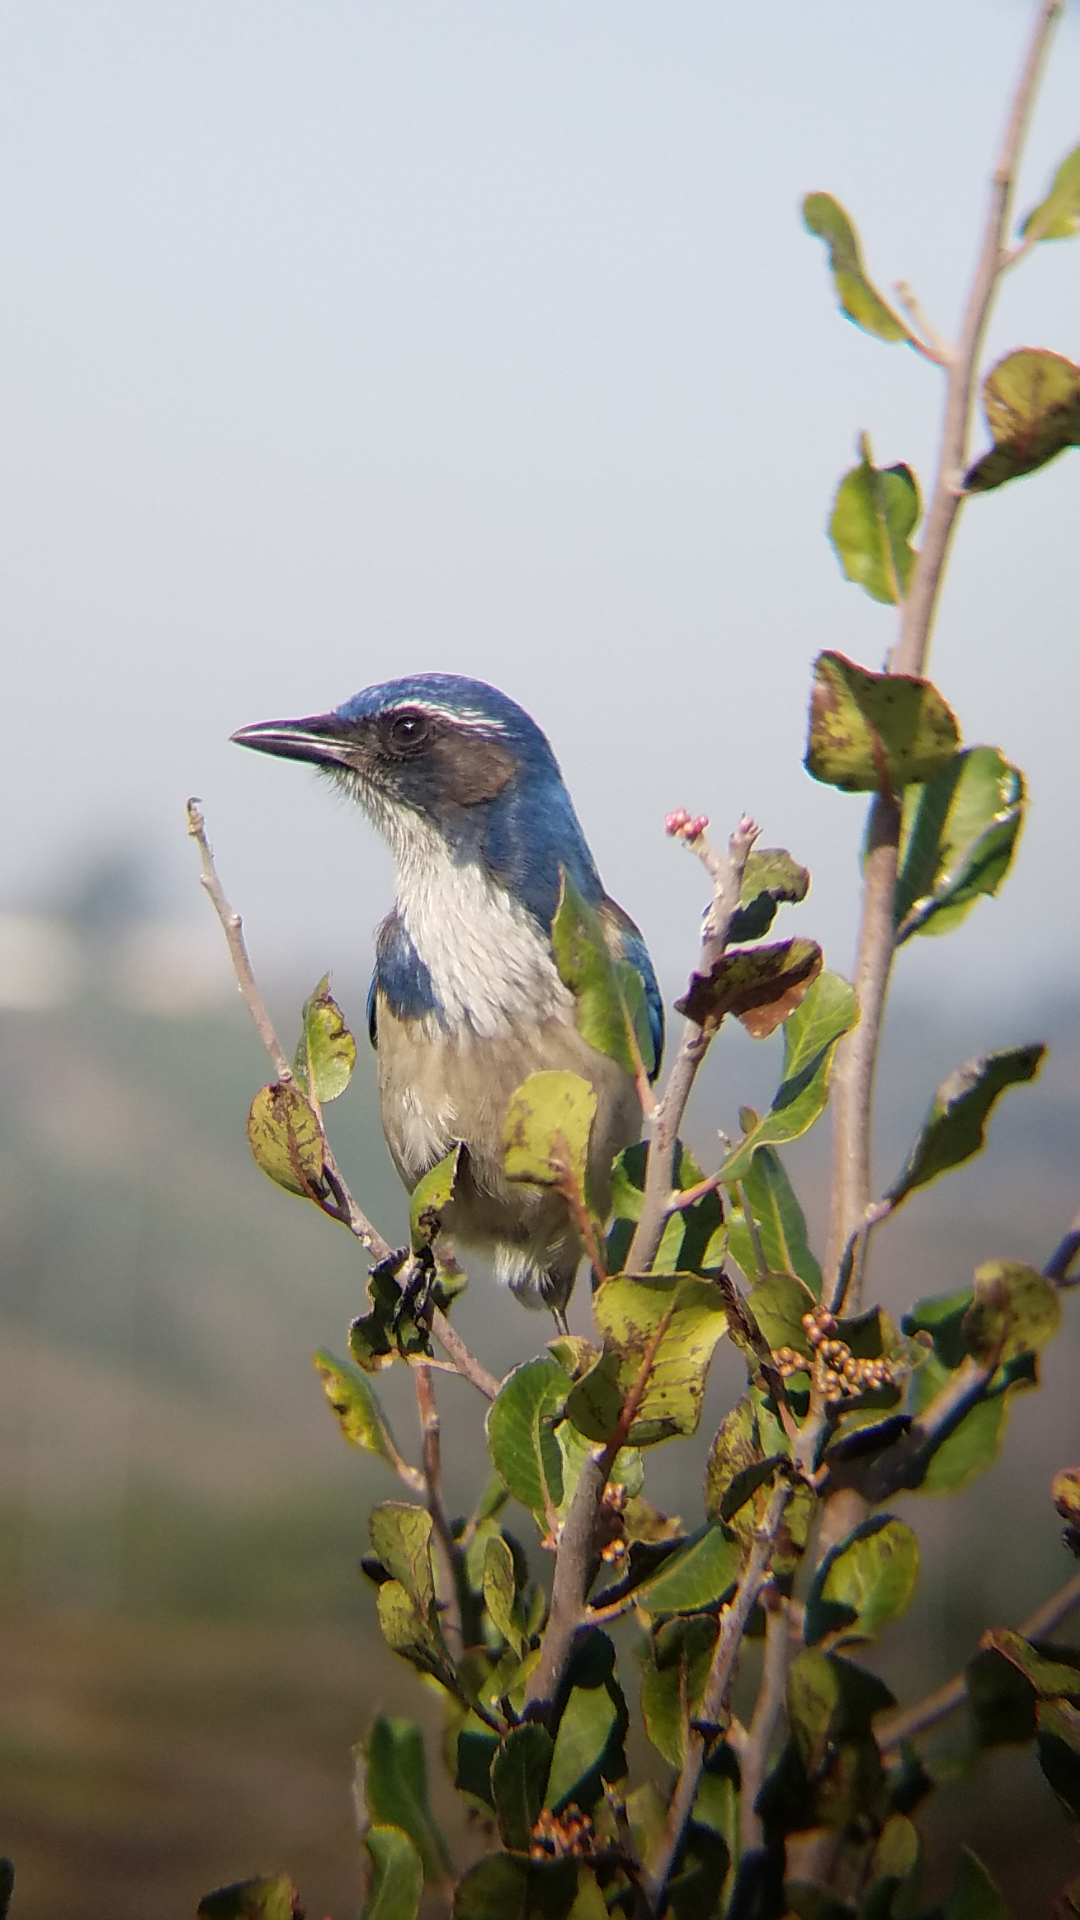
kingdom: Animalia
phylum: Chordata
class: Aves
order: Passeriformes
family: Corvidae
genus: Aphelocoma
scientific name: Aphelocoma californica
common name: California scrub-jay
